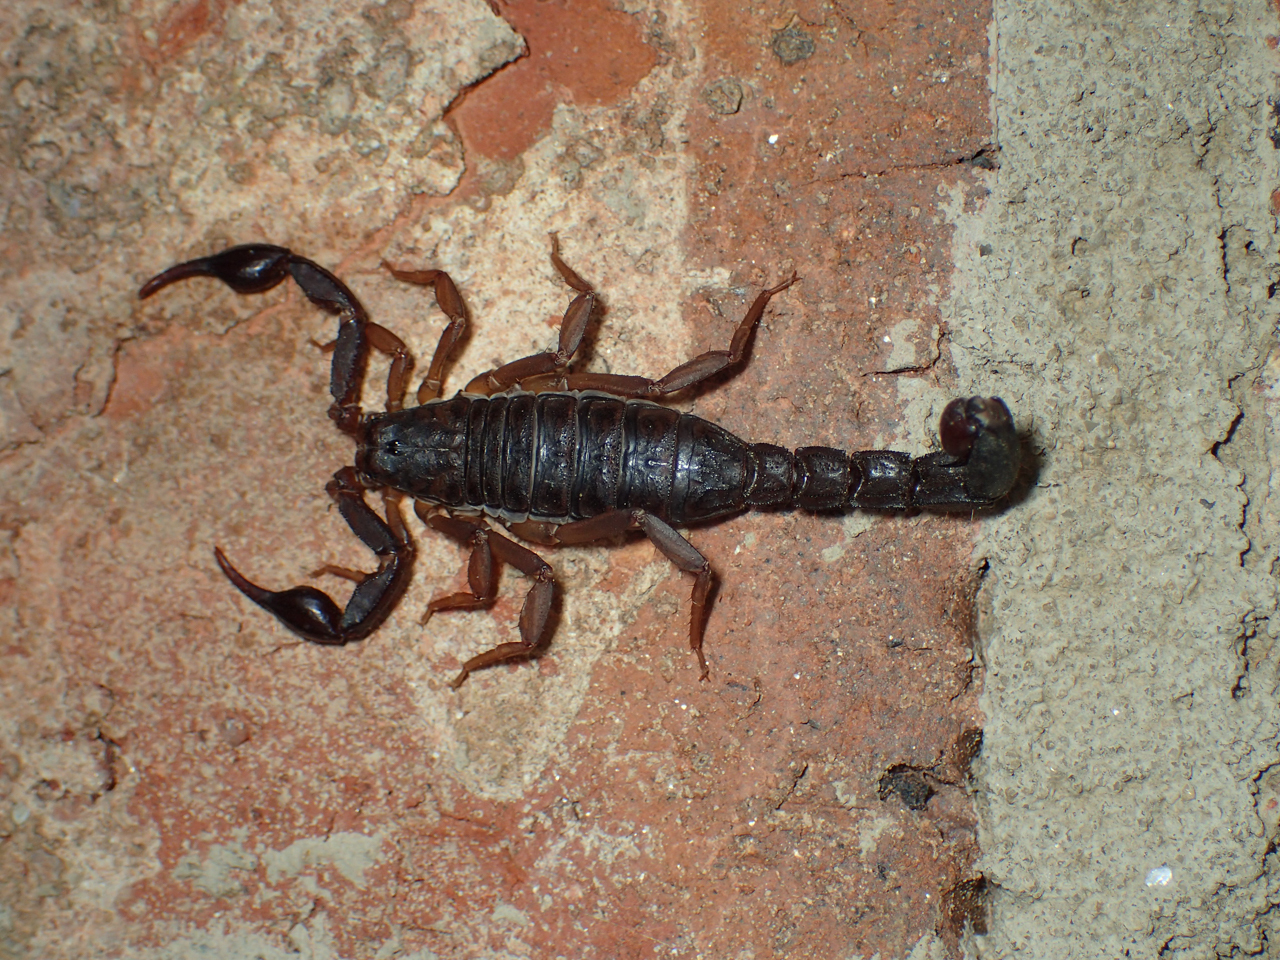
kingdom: Animalia
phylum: Arthropoda
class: Arachnida
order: Scorpiones
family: Vaejovidae
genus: Vaejovis
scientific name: Vaejovis carolinianus
